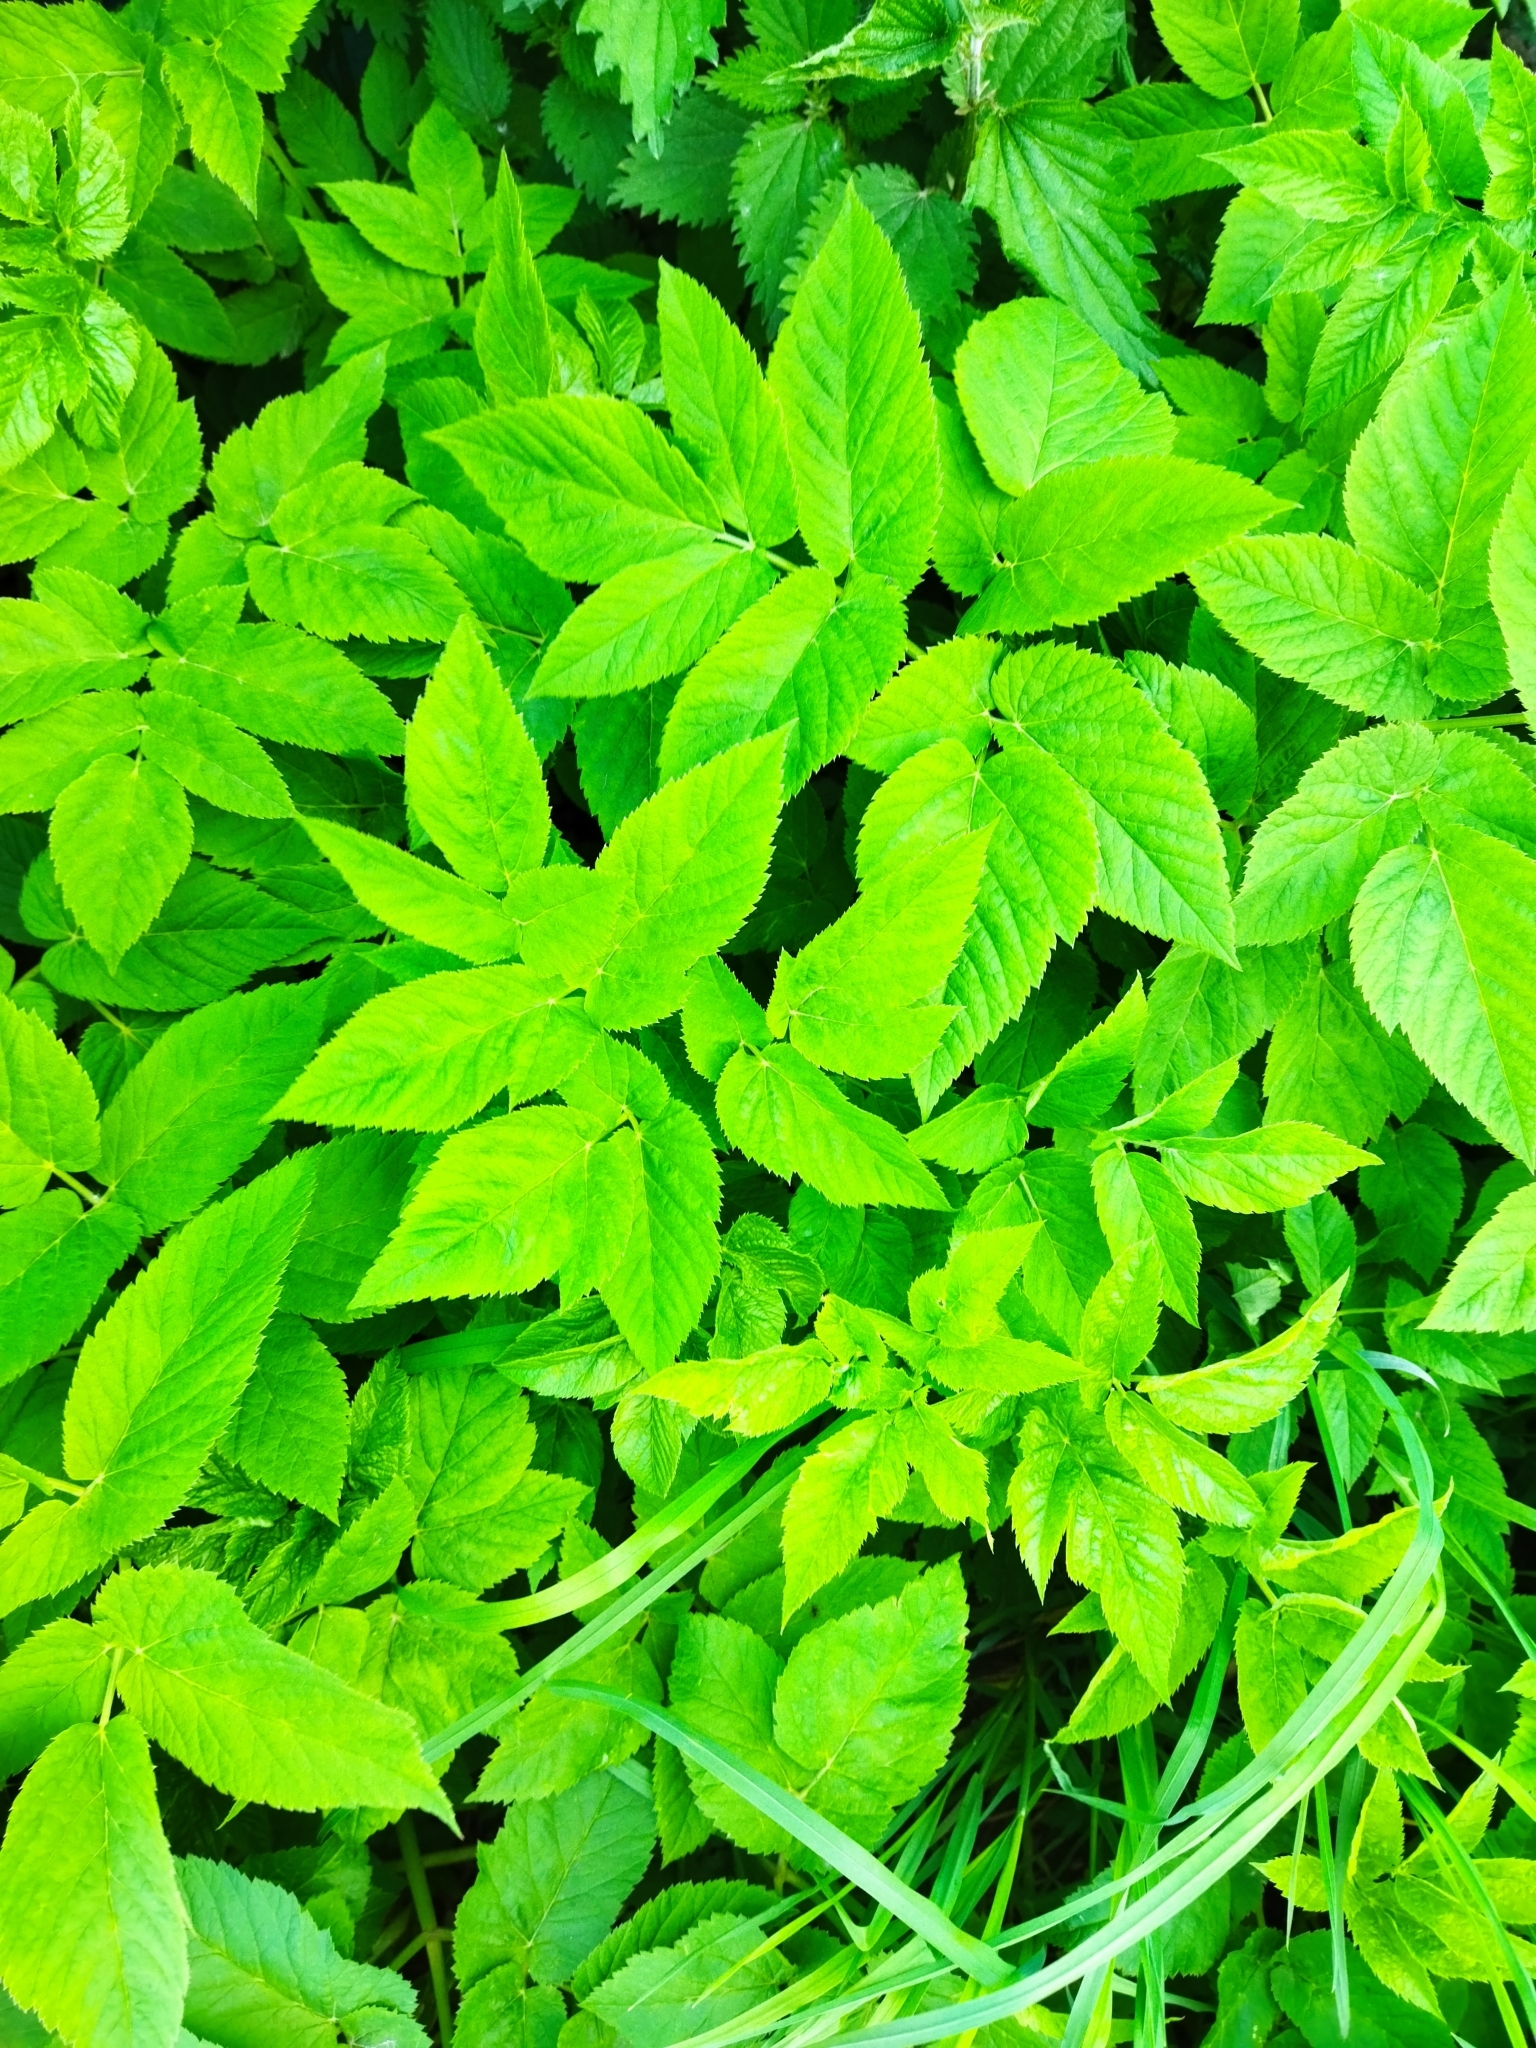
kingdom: Plantae
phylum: Tracheophyta
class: Magnoliopsida
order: Apiales
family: Apiaceae
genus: Aegopodium
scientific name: Aegopodium podagraria
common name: Ground-elder
